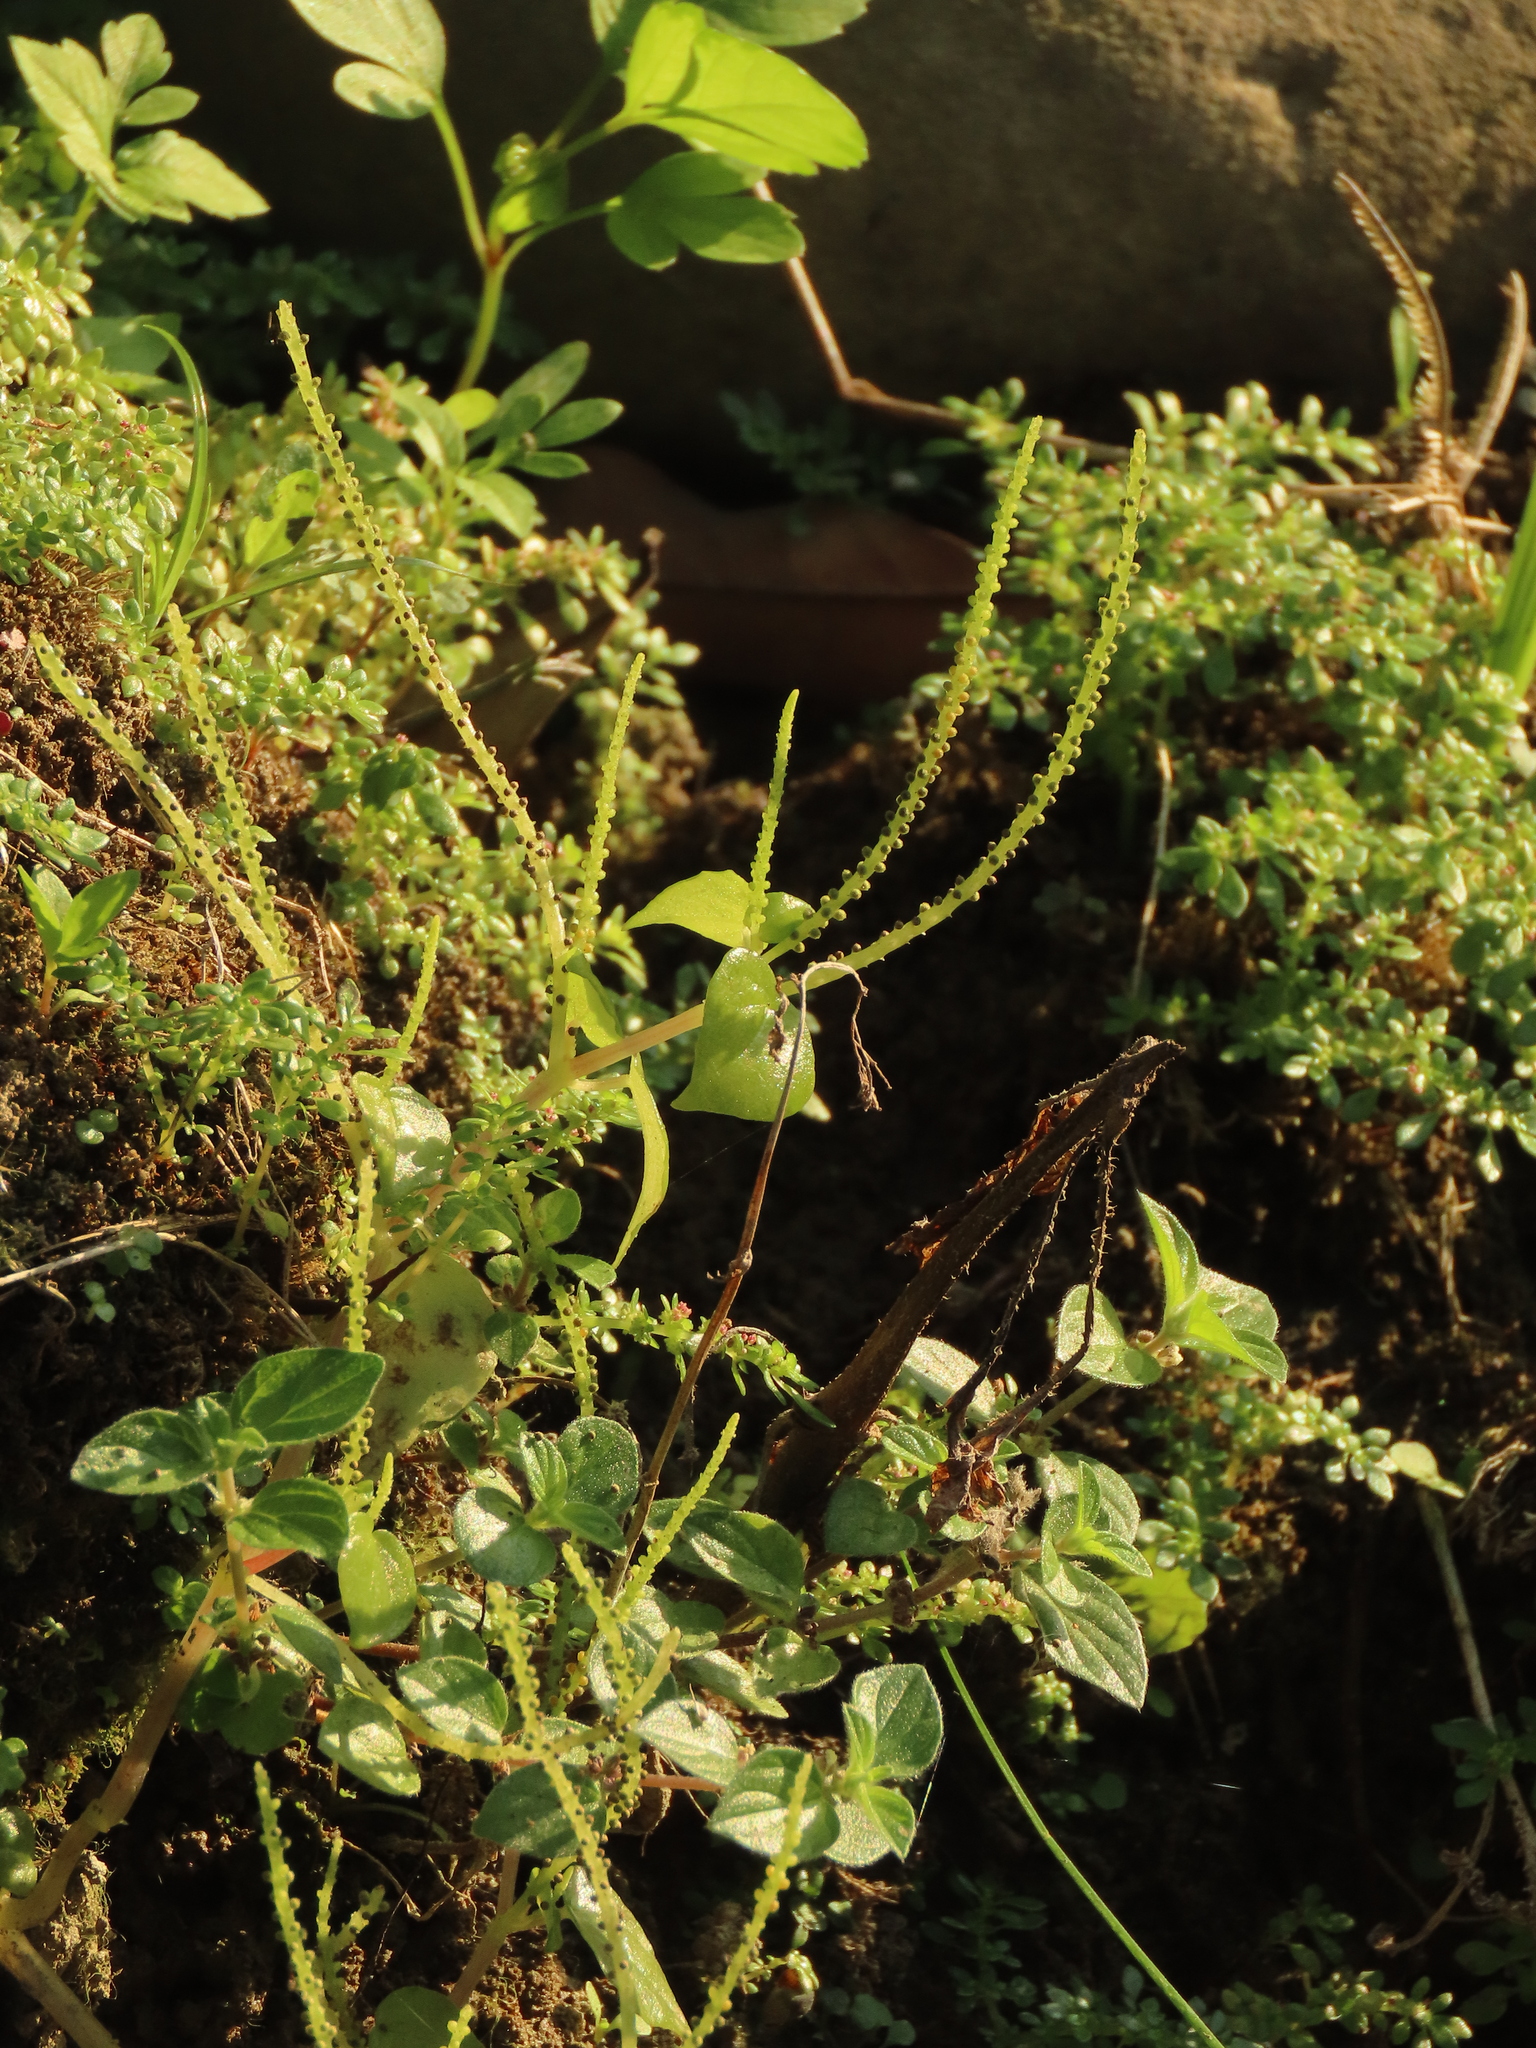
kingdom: Plantae
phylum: Tracheophyta
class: Magnoliopsida
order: Piperales
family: Piperaceae
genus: Peperomia
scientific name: Peperomia pellucida
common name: Man to man
